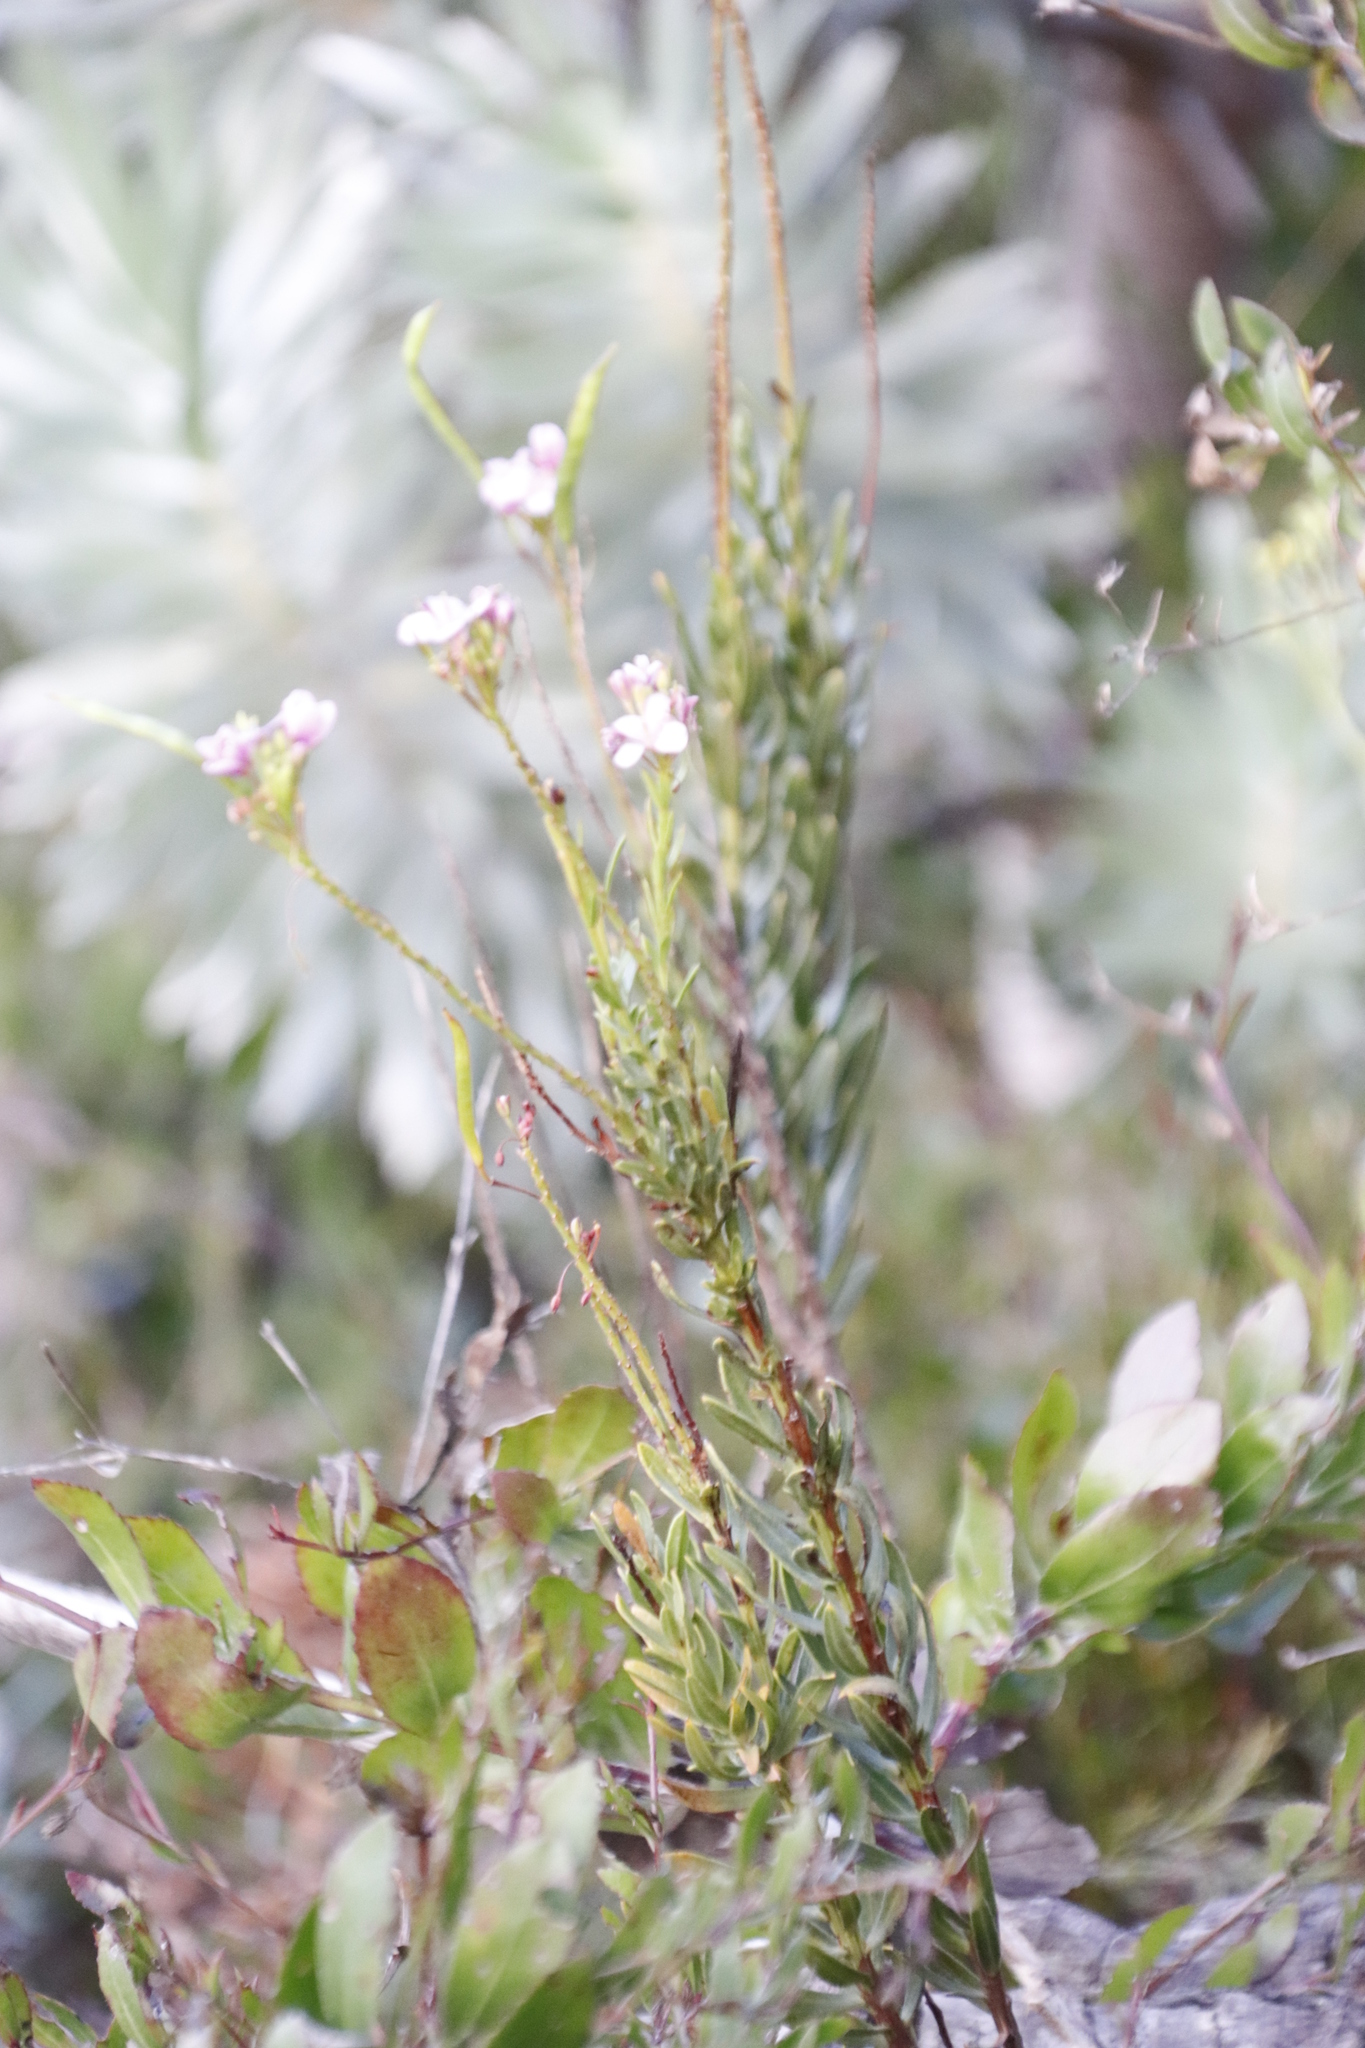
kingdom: Plantae
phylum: Tracheophyta
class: Magnoliopsida
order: Brassicales
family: Brassicaceae
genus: Heliophila
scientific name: Heliophila callosa
